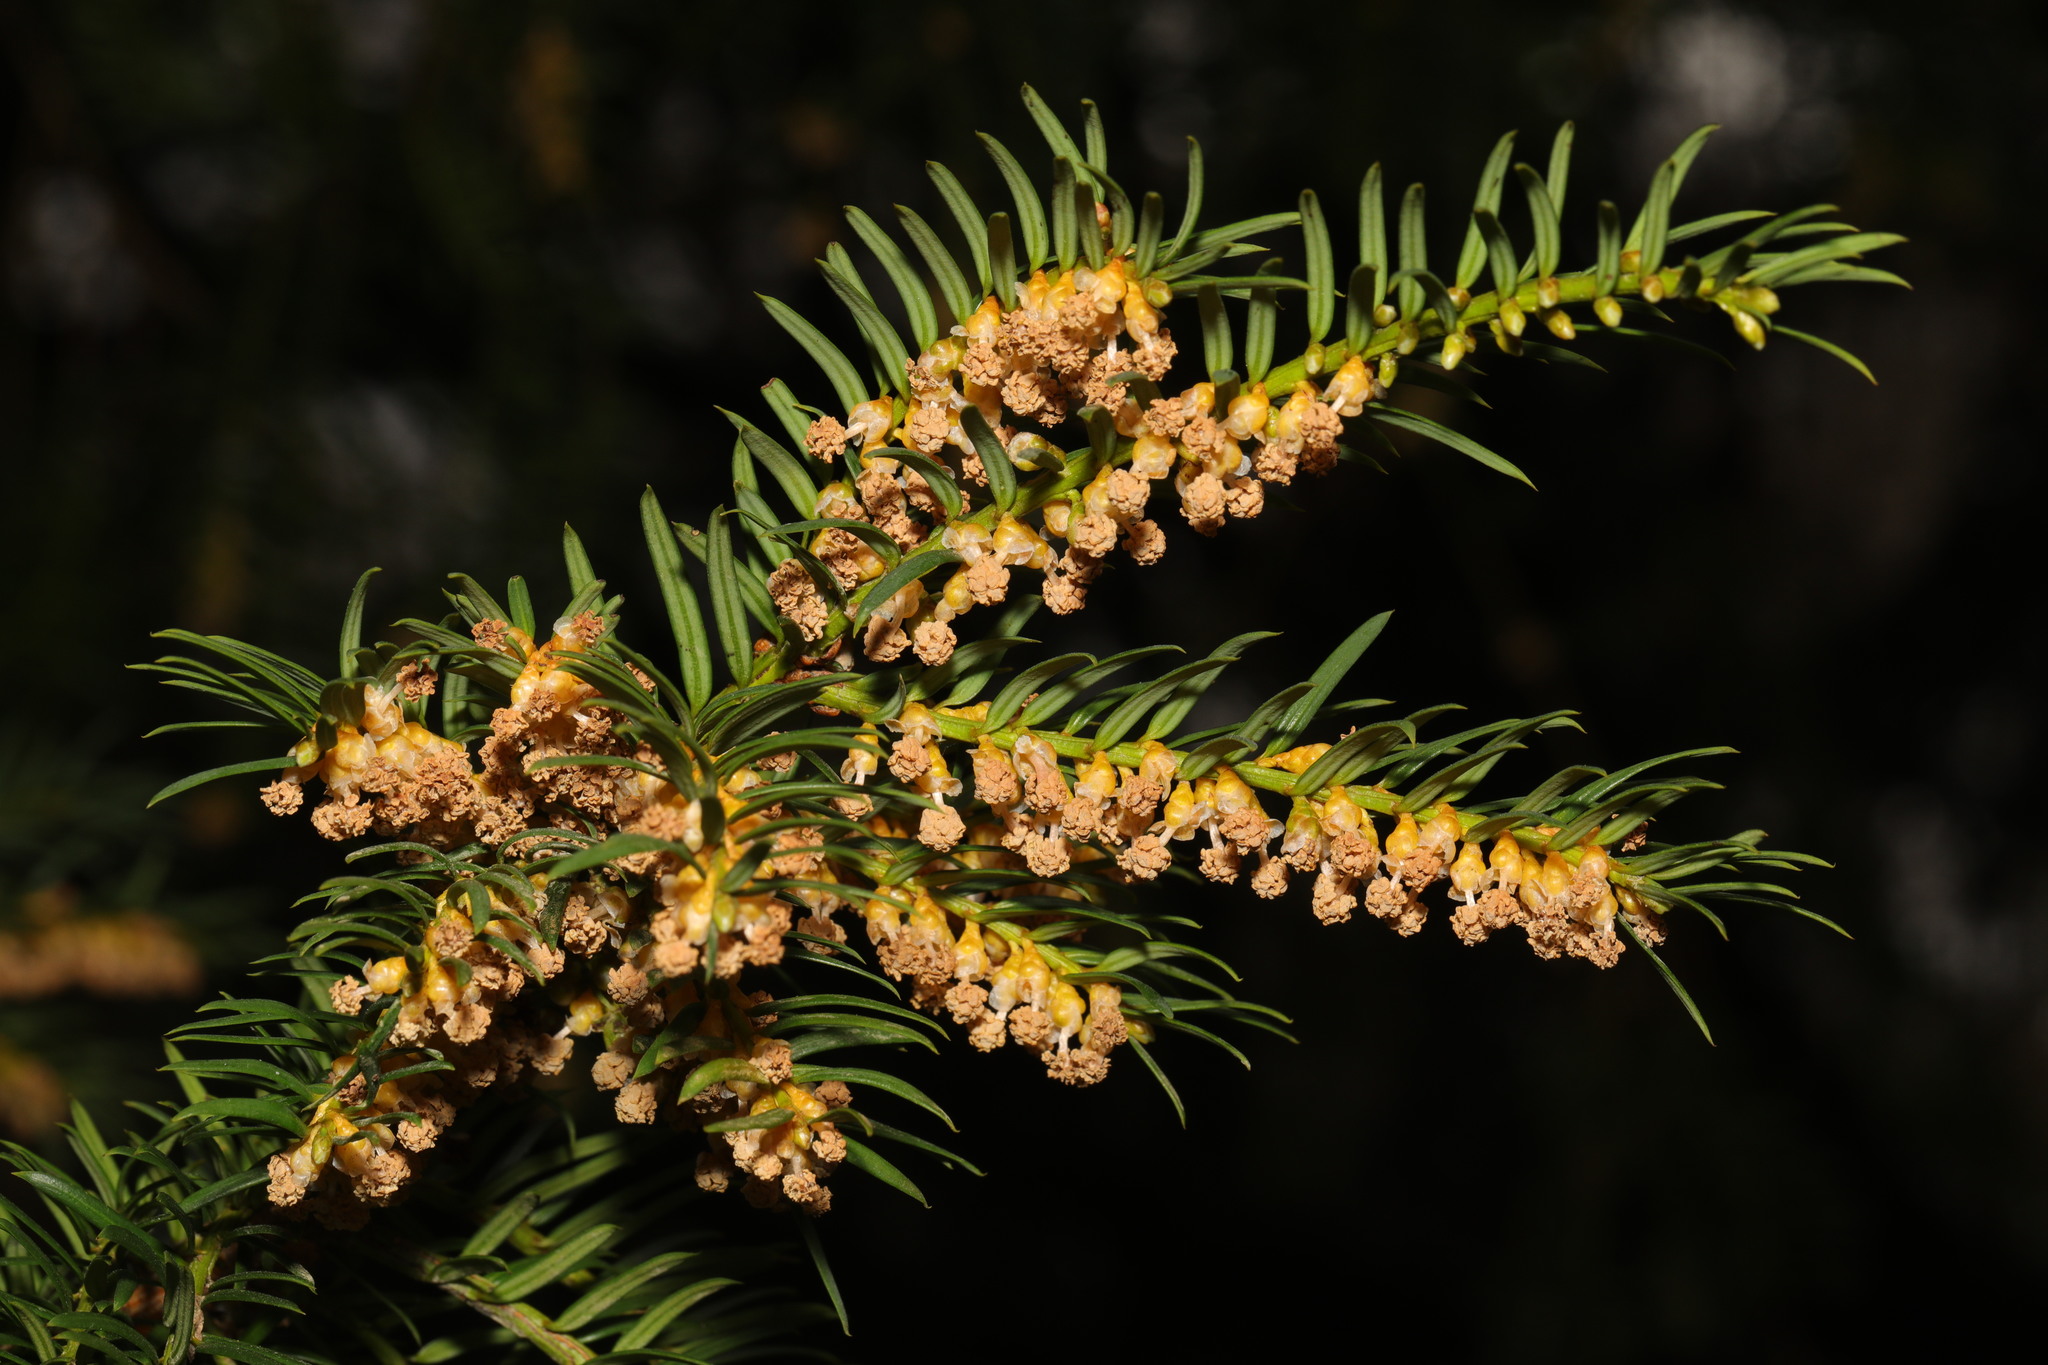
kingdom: Plantae
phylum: Tracheophyta
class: Pinopsida
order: Pinales
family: Taxaceae
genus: Taxus
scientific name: Taxus baccata
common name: Yew
